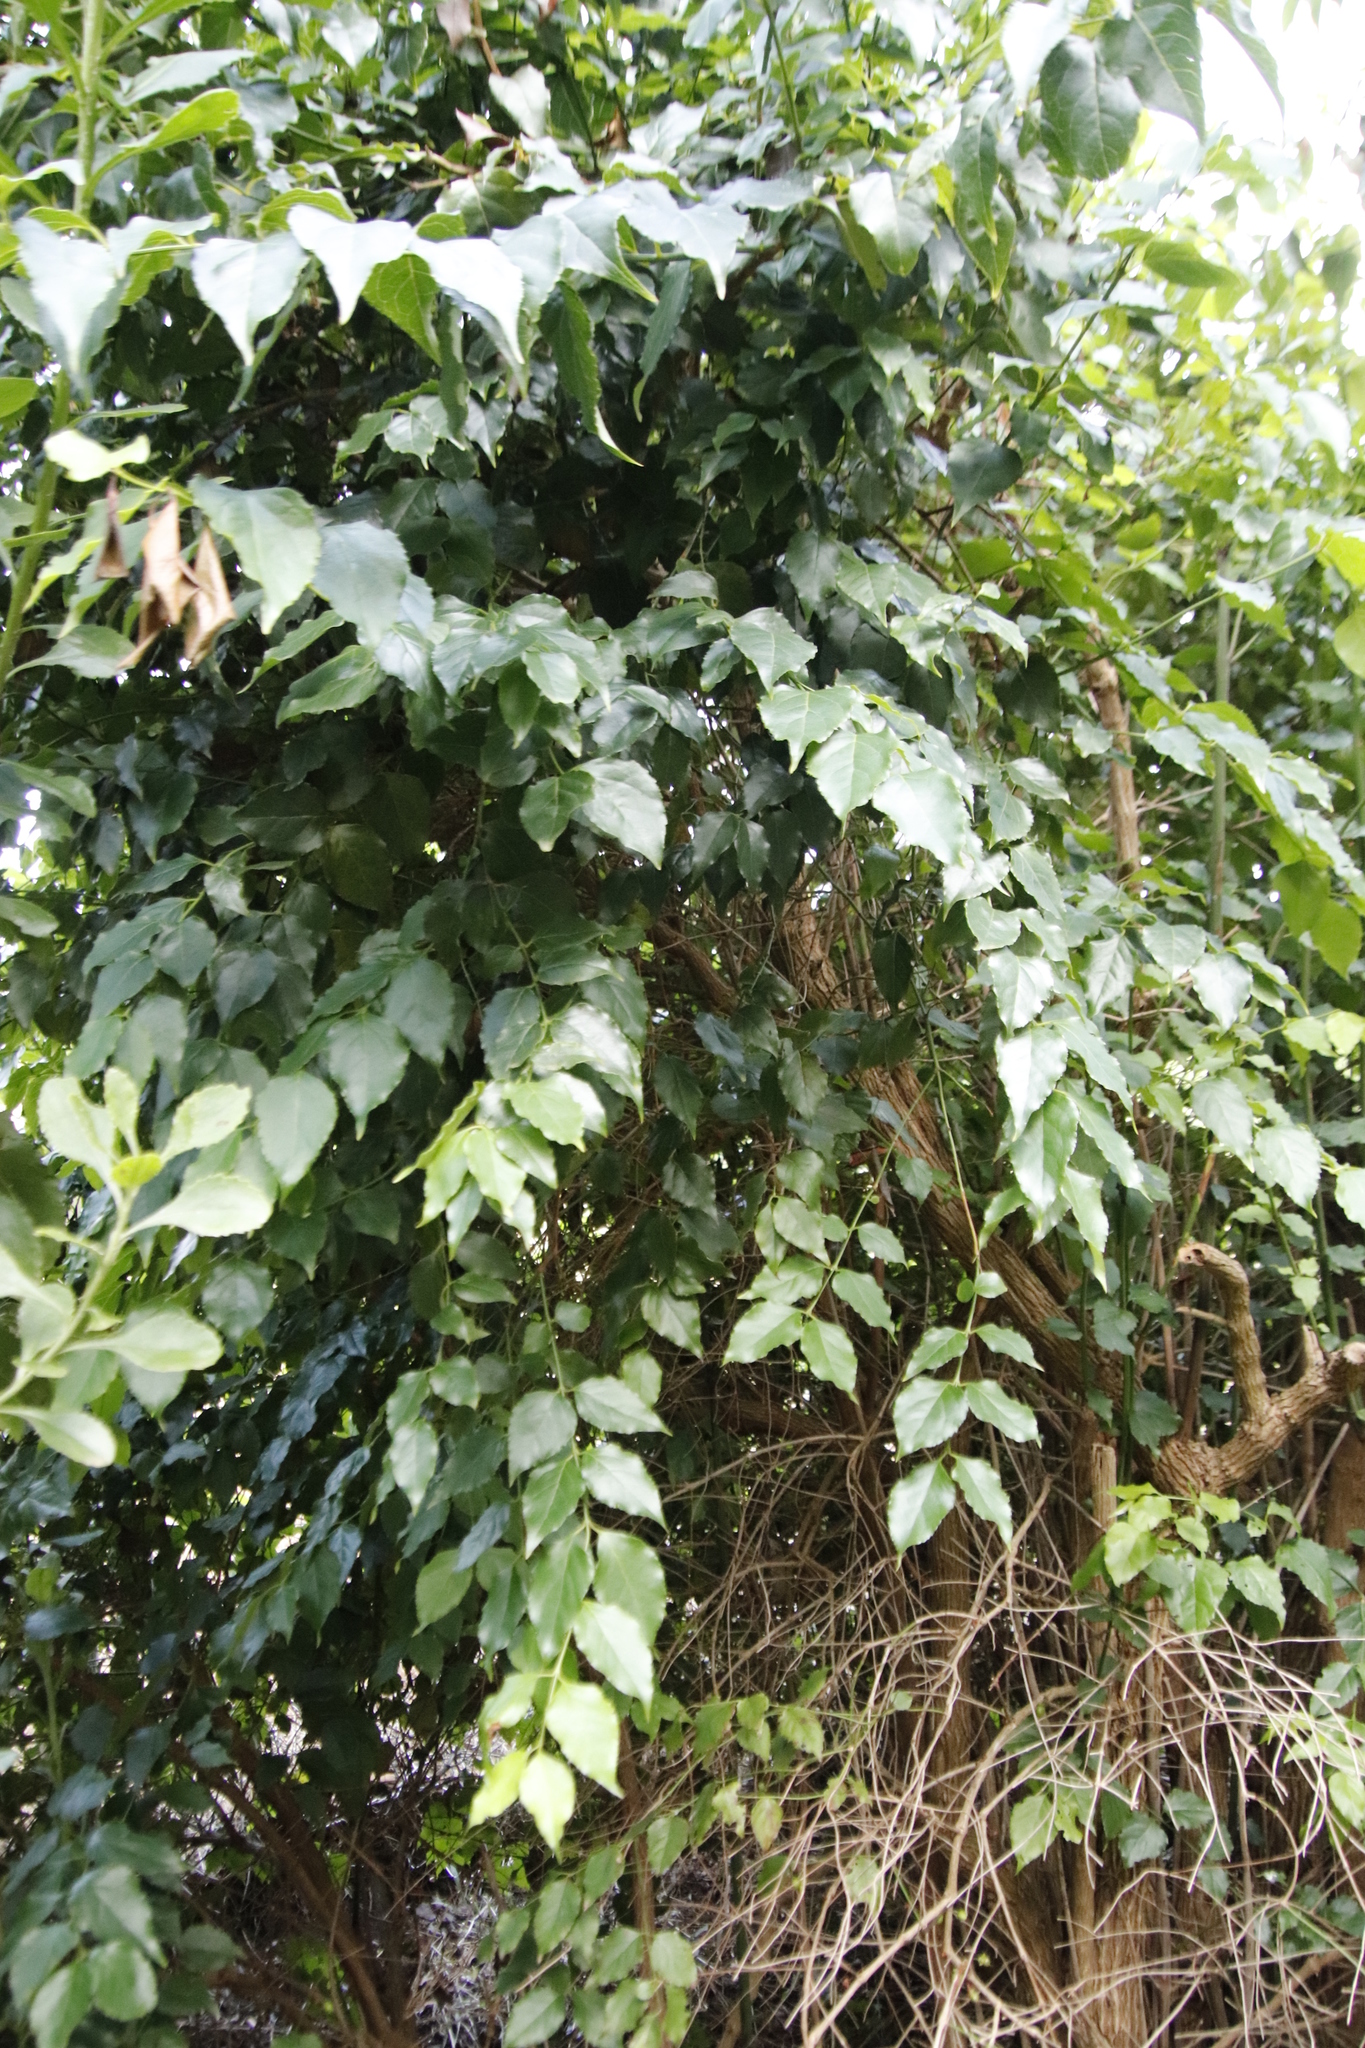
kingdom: Plantae
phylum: Tracheophyta
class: Magnoliopsida
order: Lamiales
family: Stilbaceae
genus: Halleria
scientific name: Halleria lucida
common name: Tree fuschia
